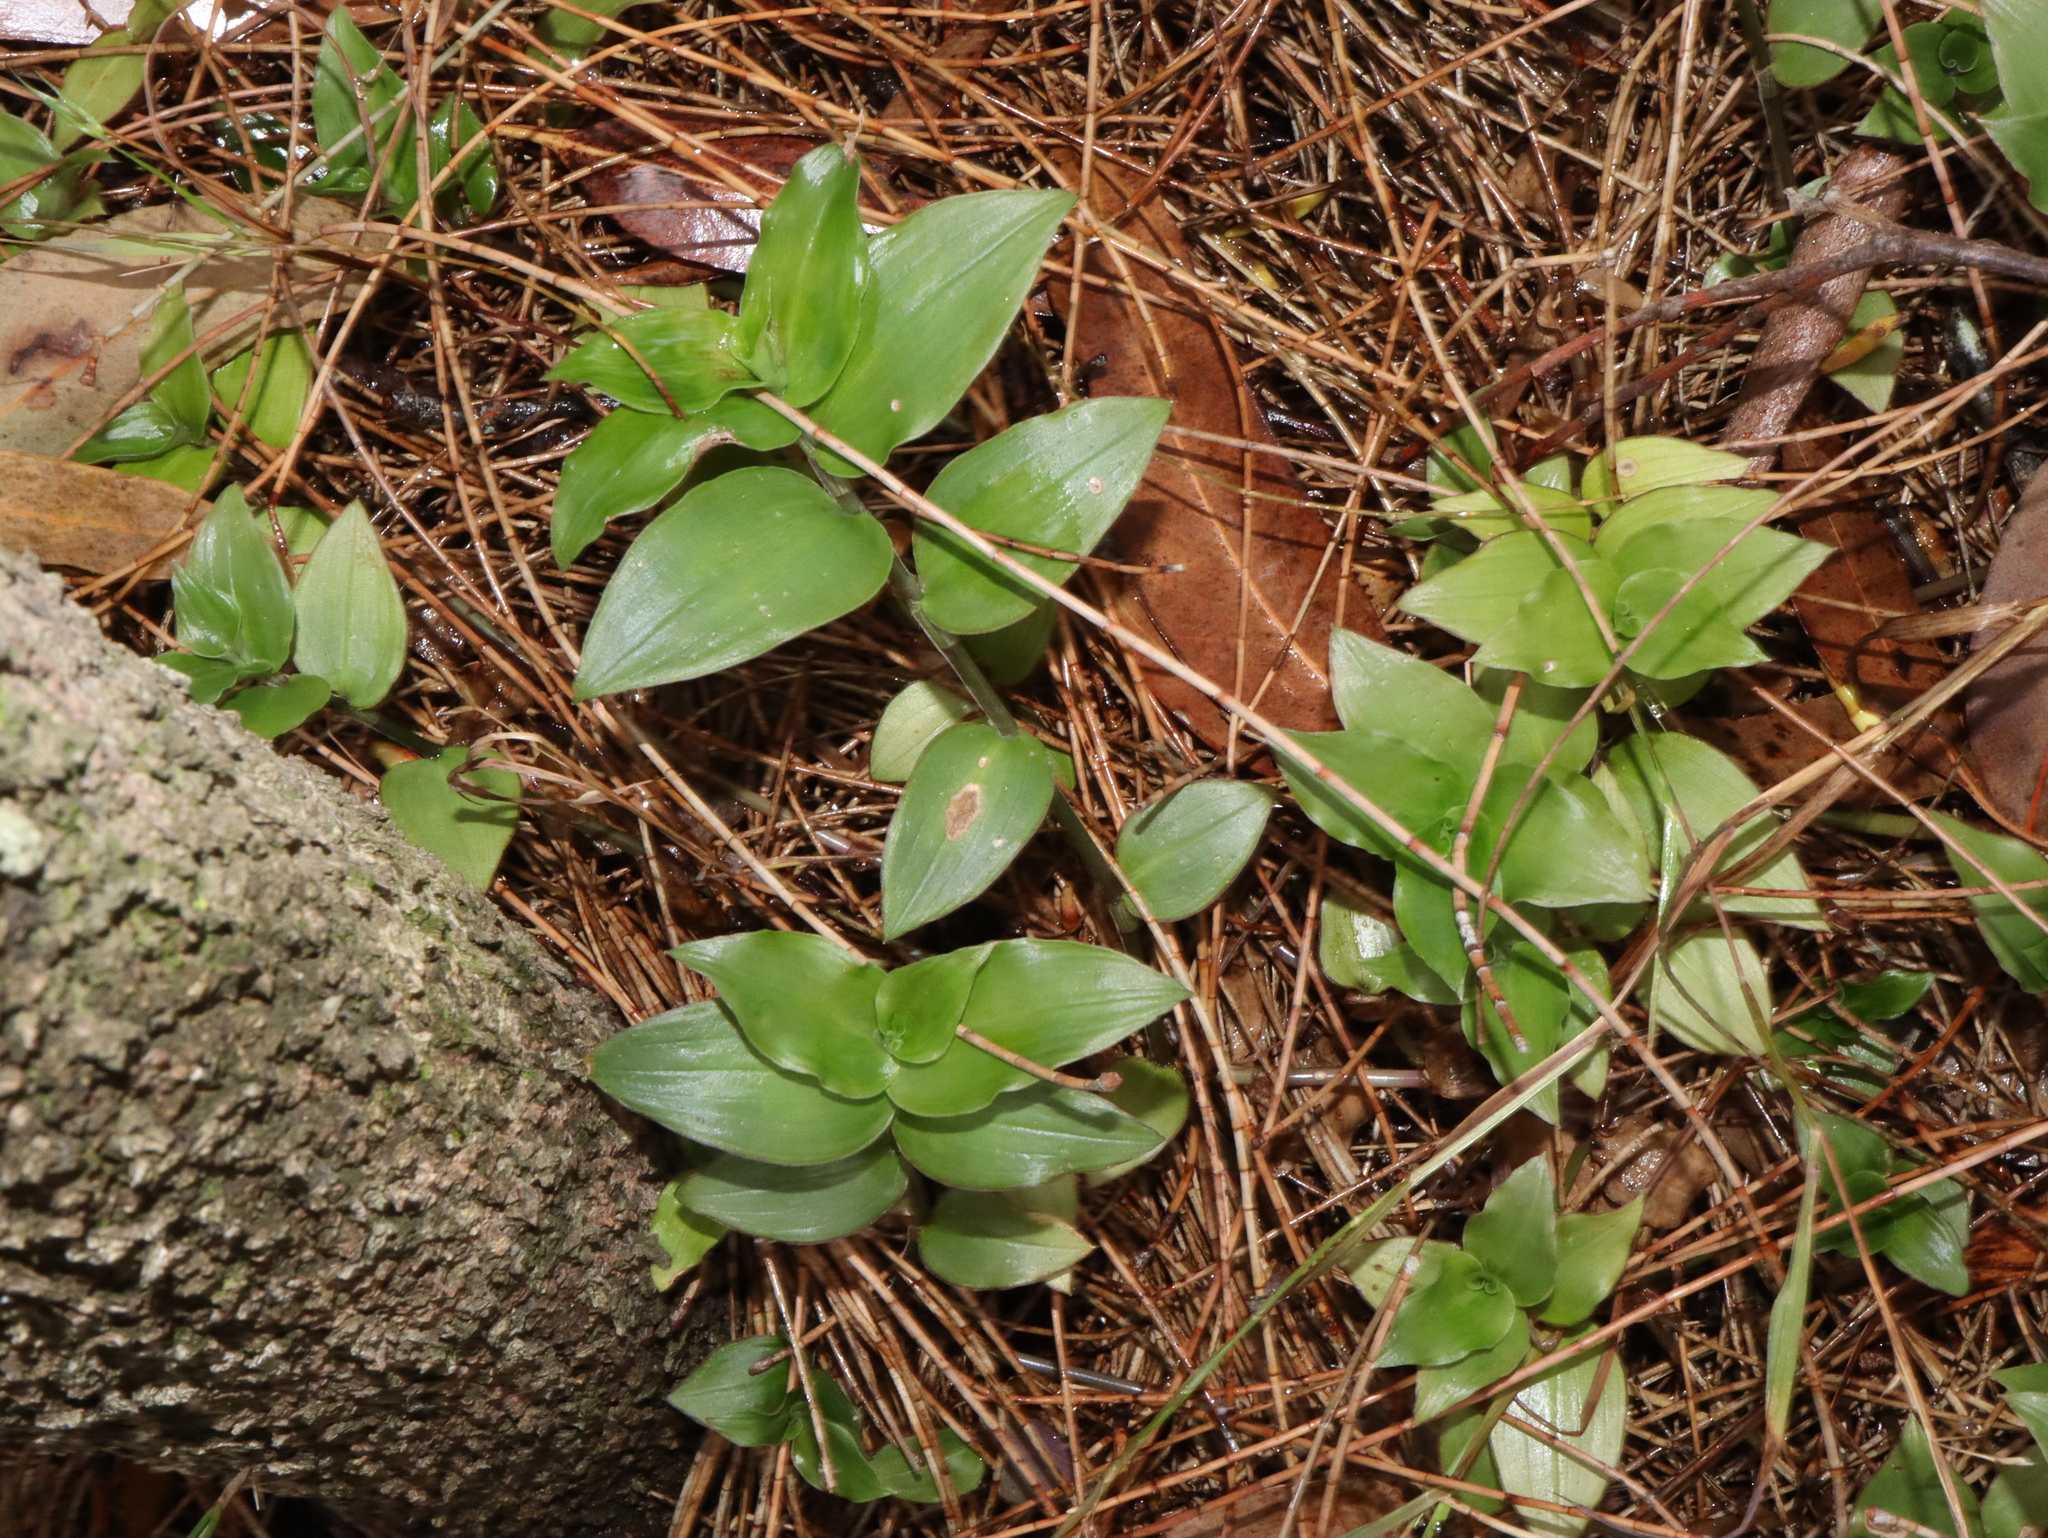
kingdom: Plantae
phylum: Tracheophyta
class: Liliopsida
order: Commelinales
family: Commelinaceae
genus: Tradescantia
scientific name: Tradescantia fluminensis
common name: Wandering-jew
